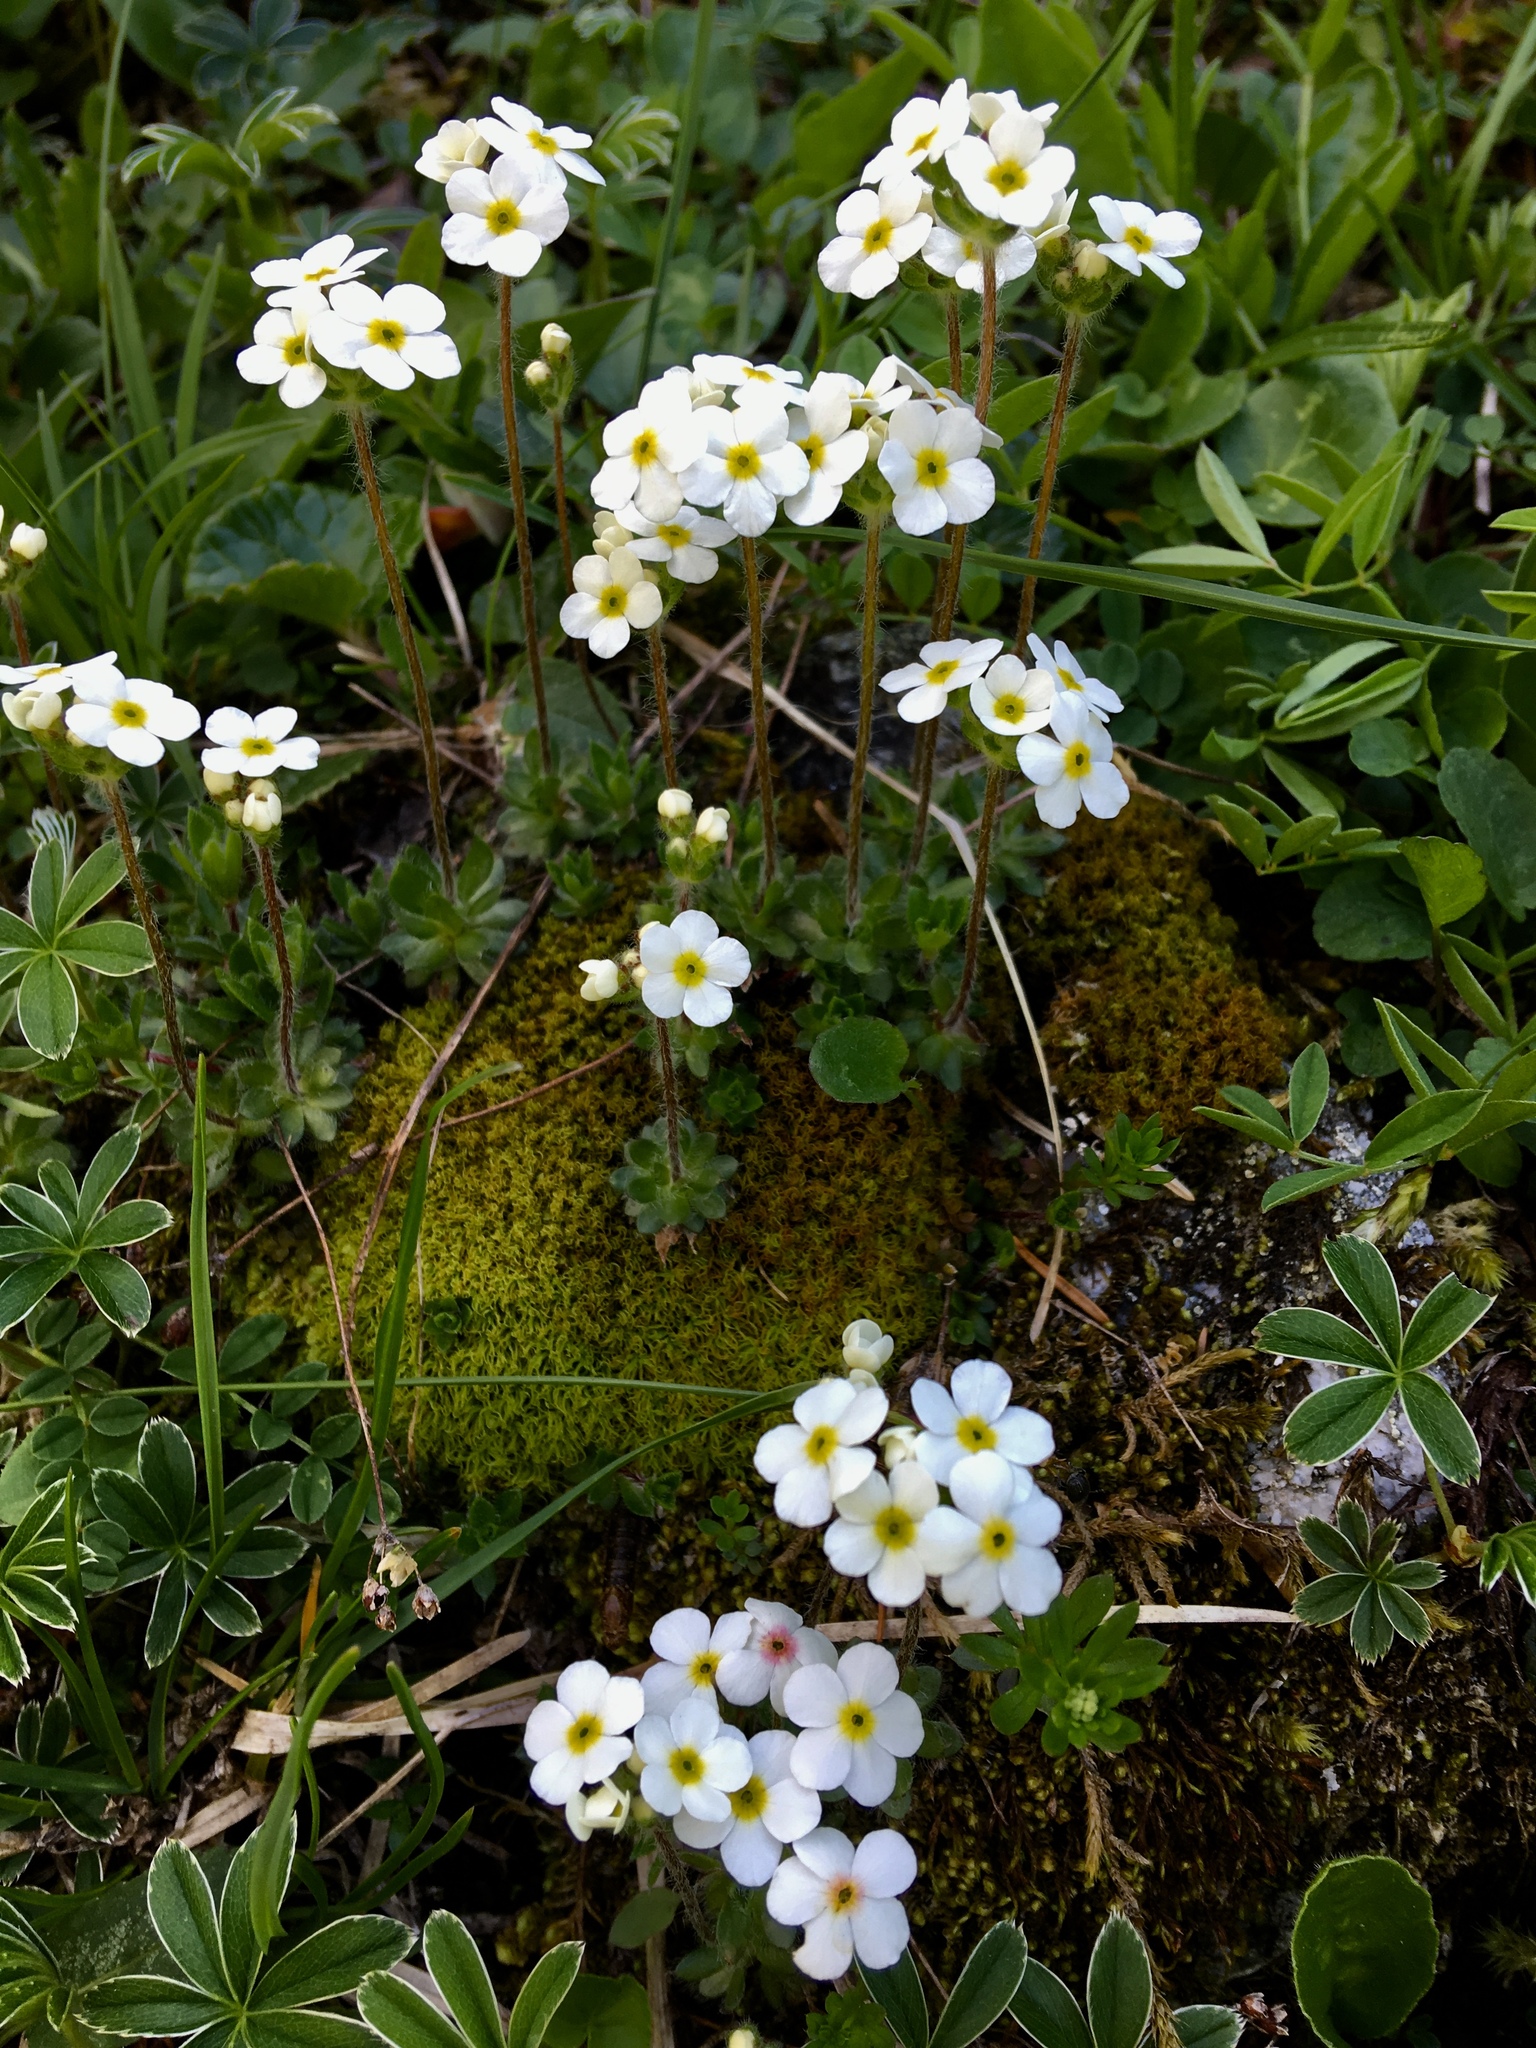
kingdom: Plantae
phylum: Tracheophyta
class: Magnoliopsida
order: Ericales
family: Primulaceae
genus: Androsace
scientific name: Androsace chamaejasme
